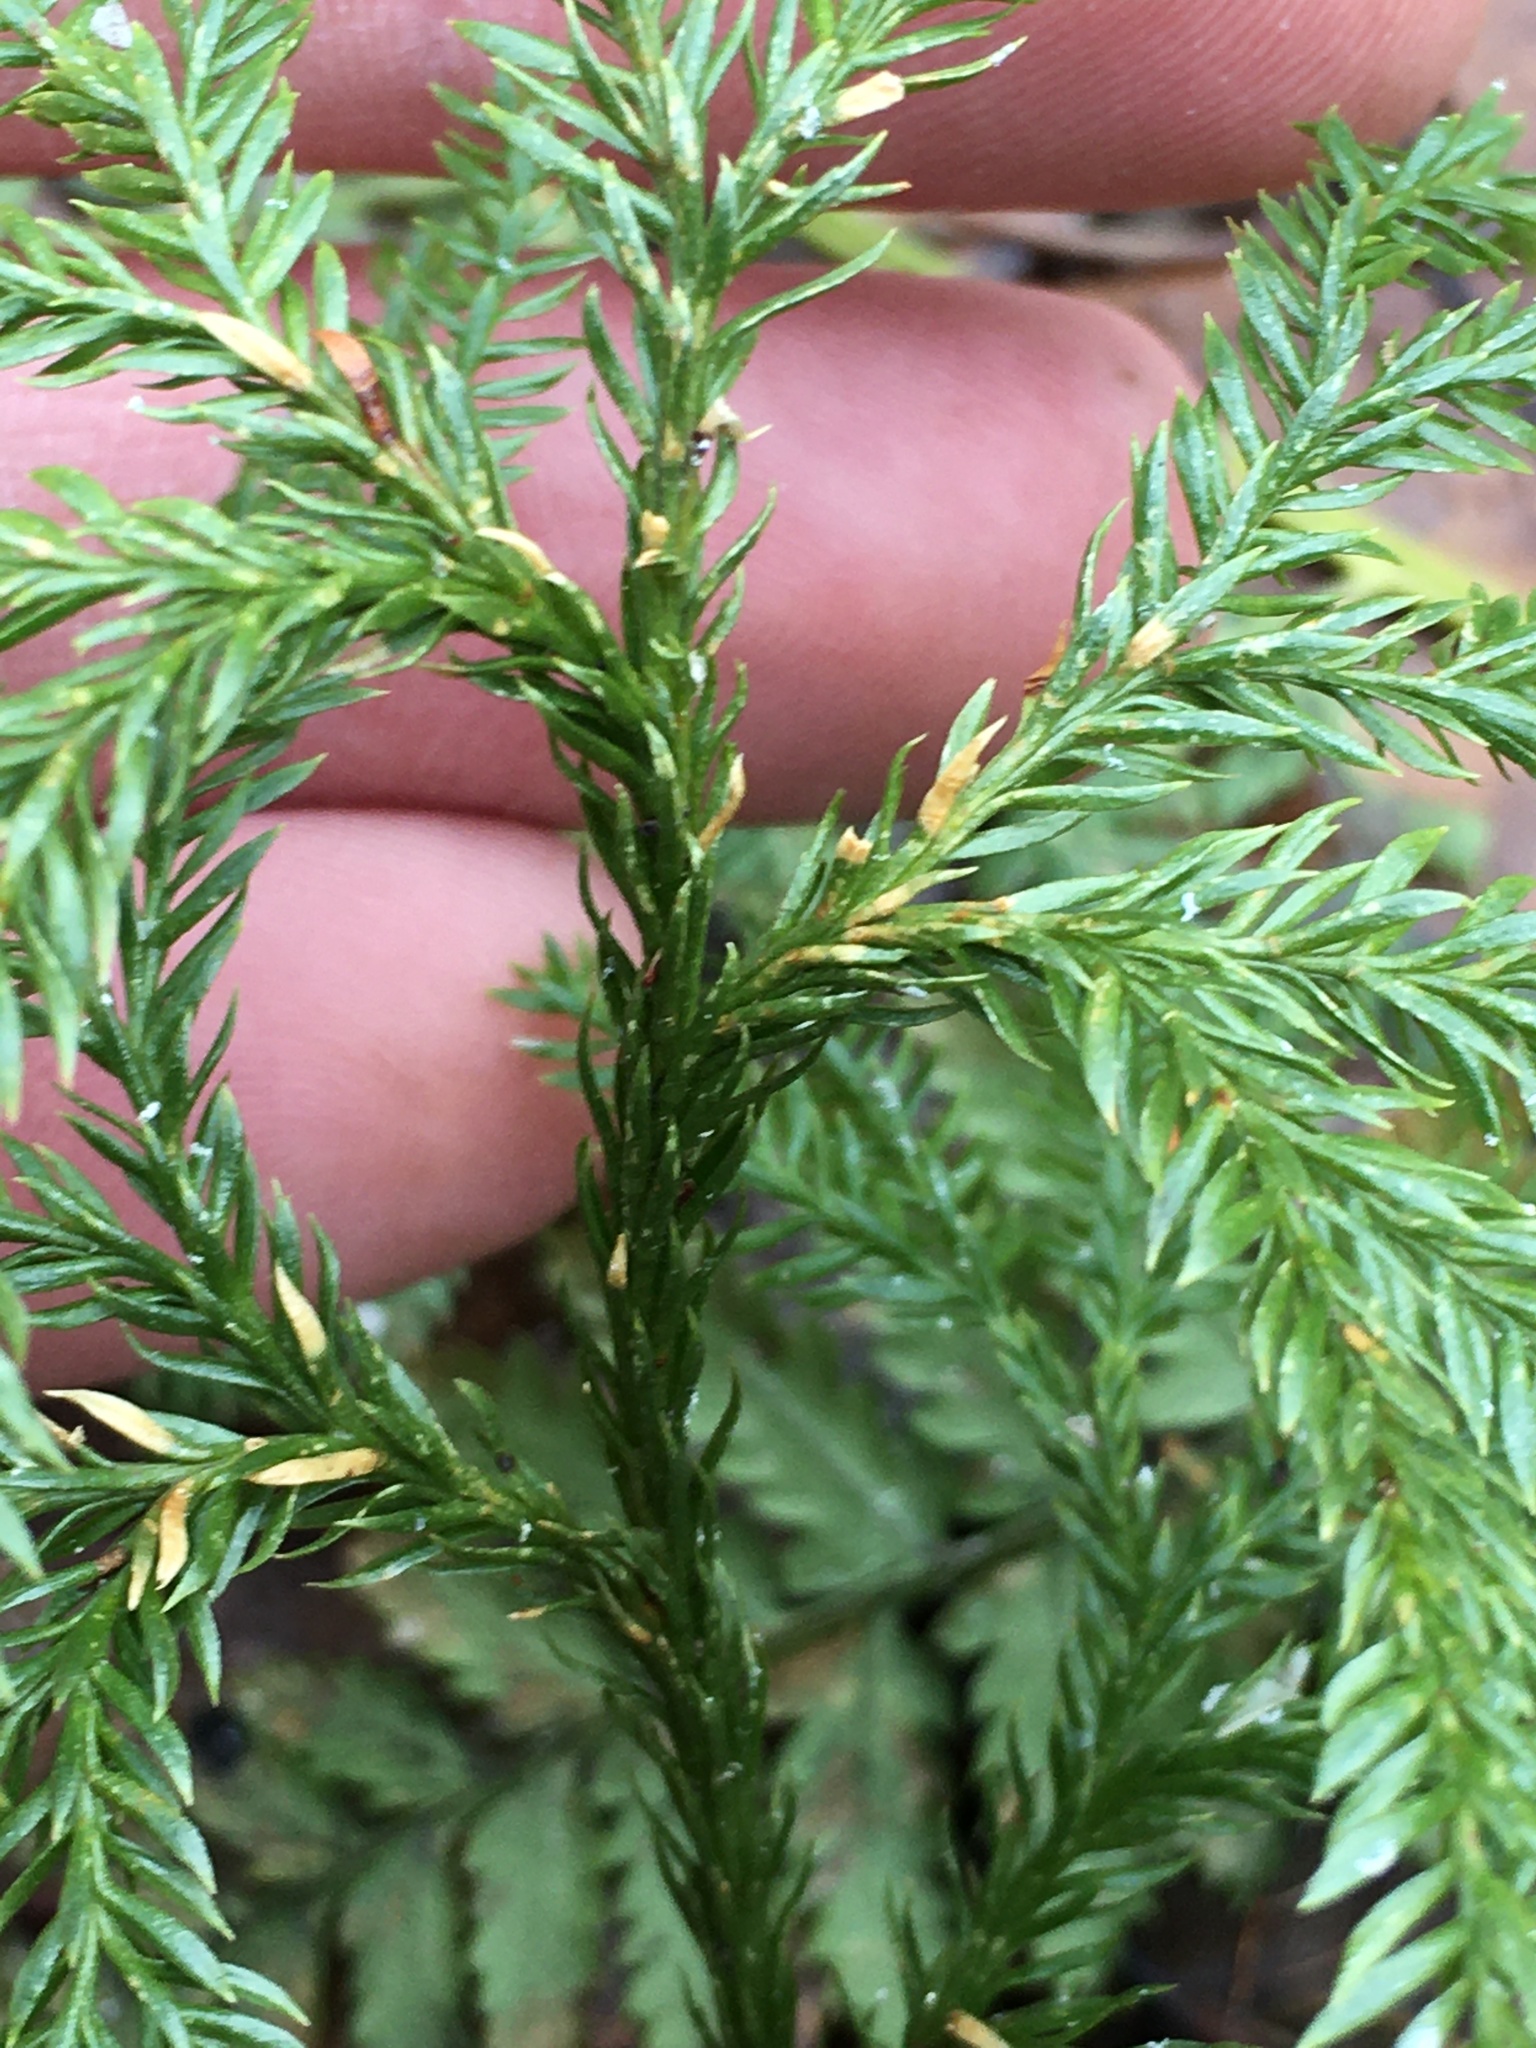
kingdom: Plantae
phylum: Tracheophyta
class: Lycopodiopsida
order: Lycopodiales
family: Lycopodiaceae
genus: Dendrolycopodium
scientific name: Dendrolycopodium dendroideum
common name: Northern tree-clubmoss
